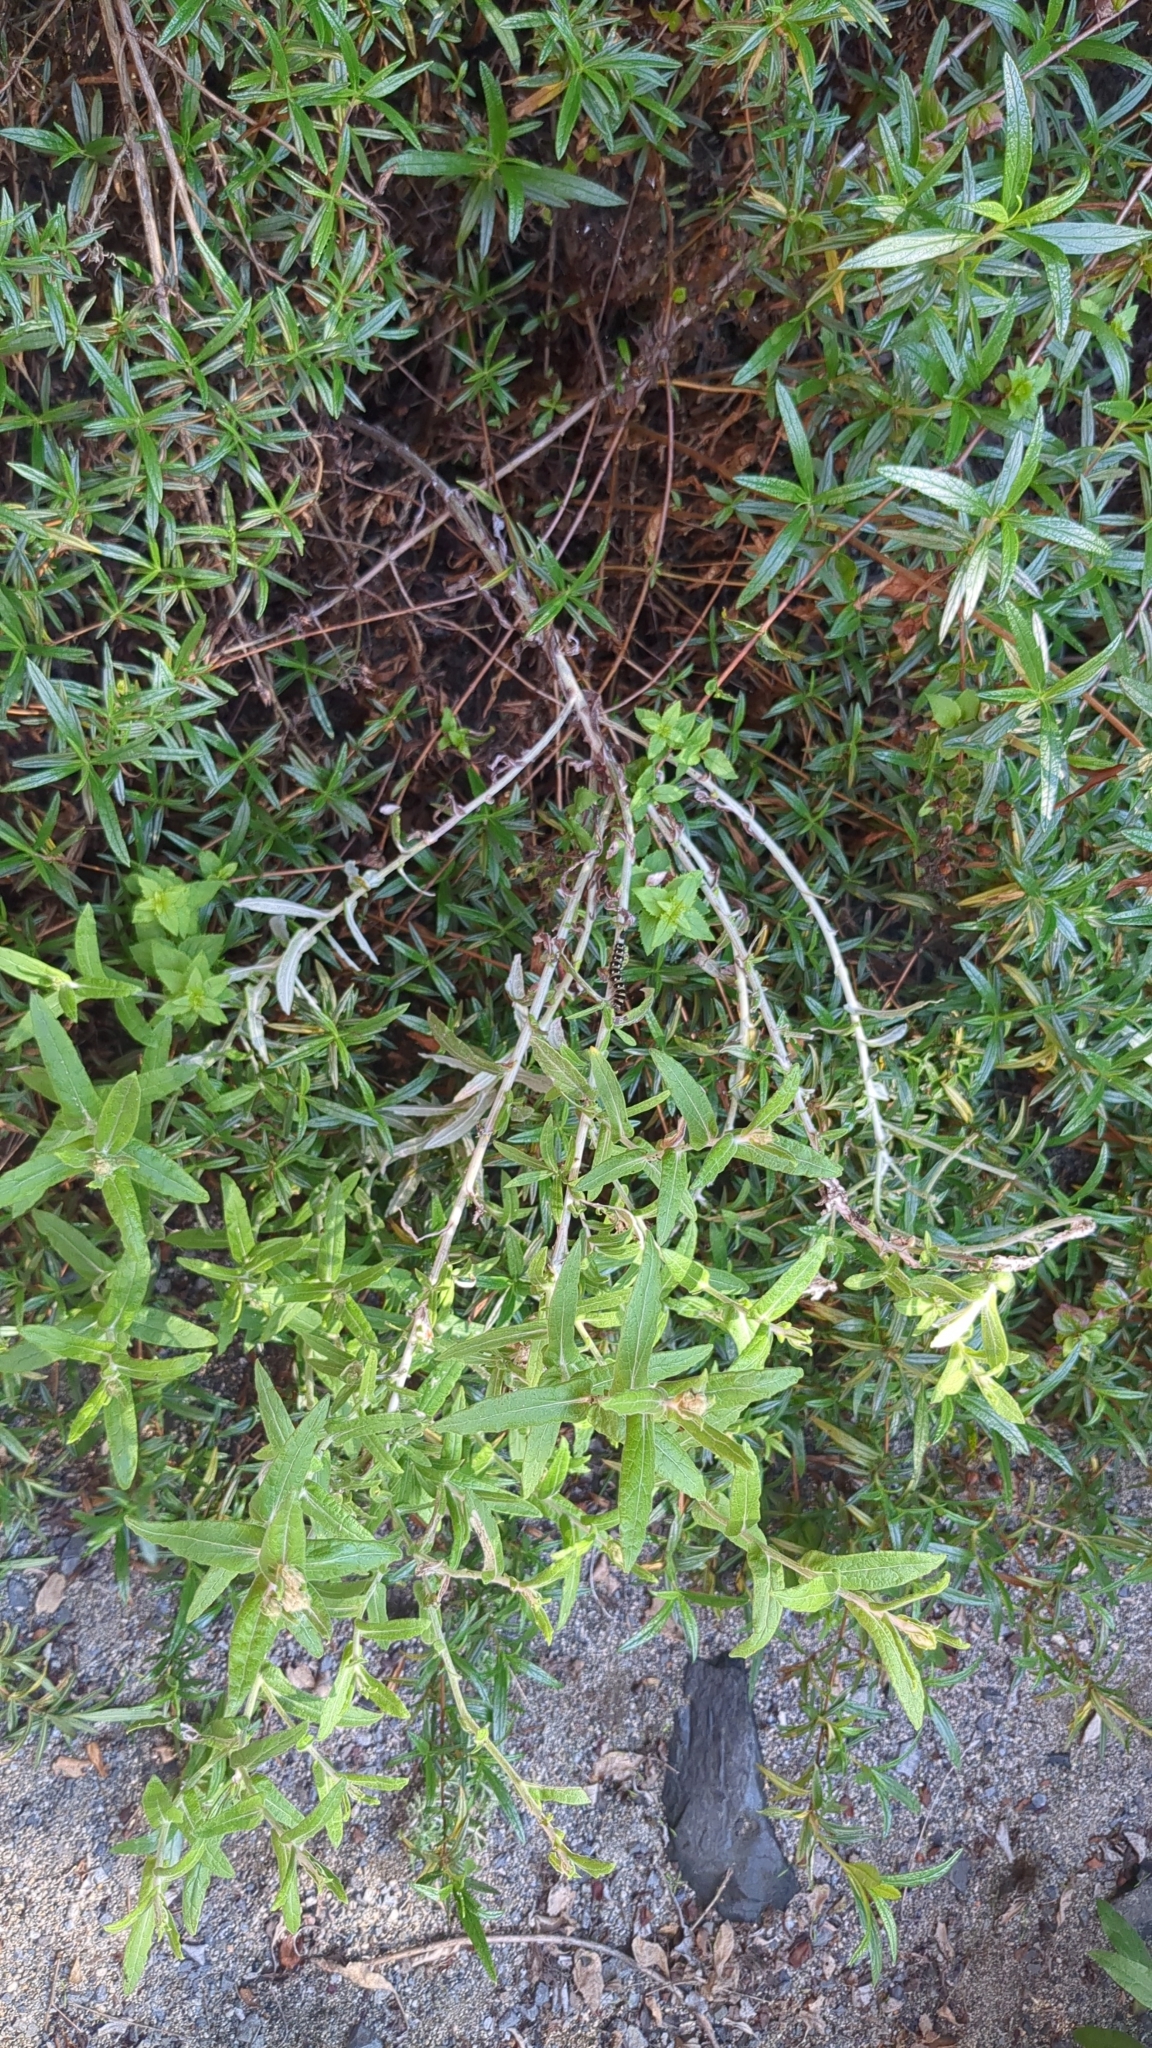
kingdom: Animalia
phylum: Arthropoda
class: Insecta
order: Lepidoptera
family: Nymphalidae
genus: Vanessa
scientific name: Vanessa virginiensis
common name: American lady
